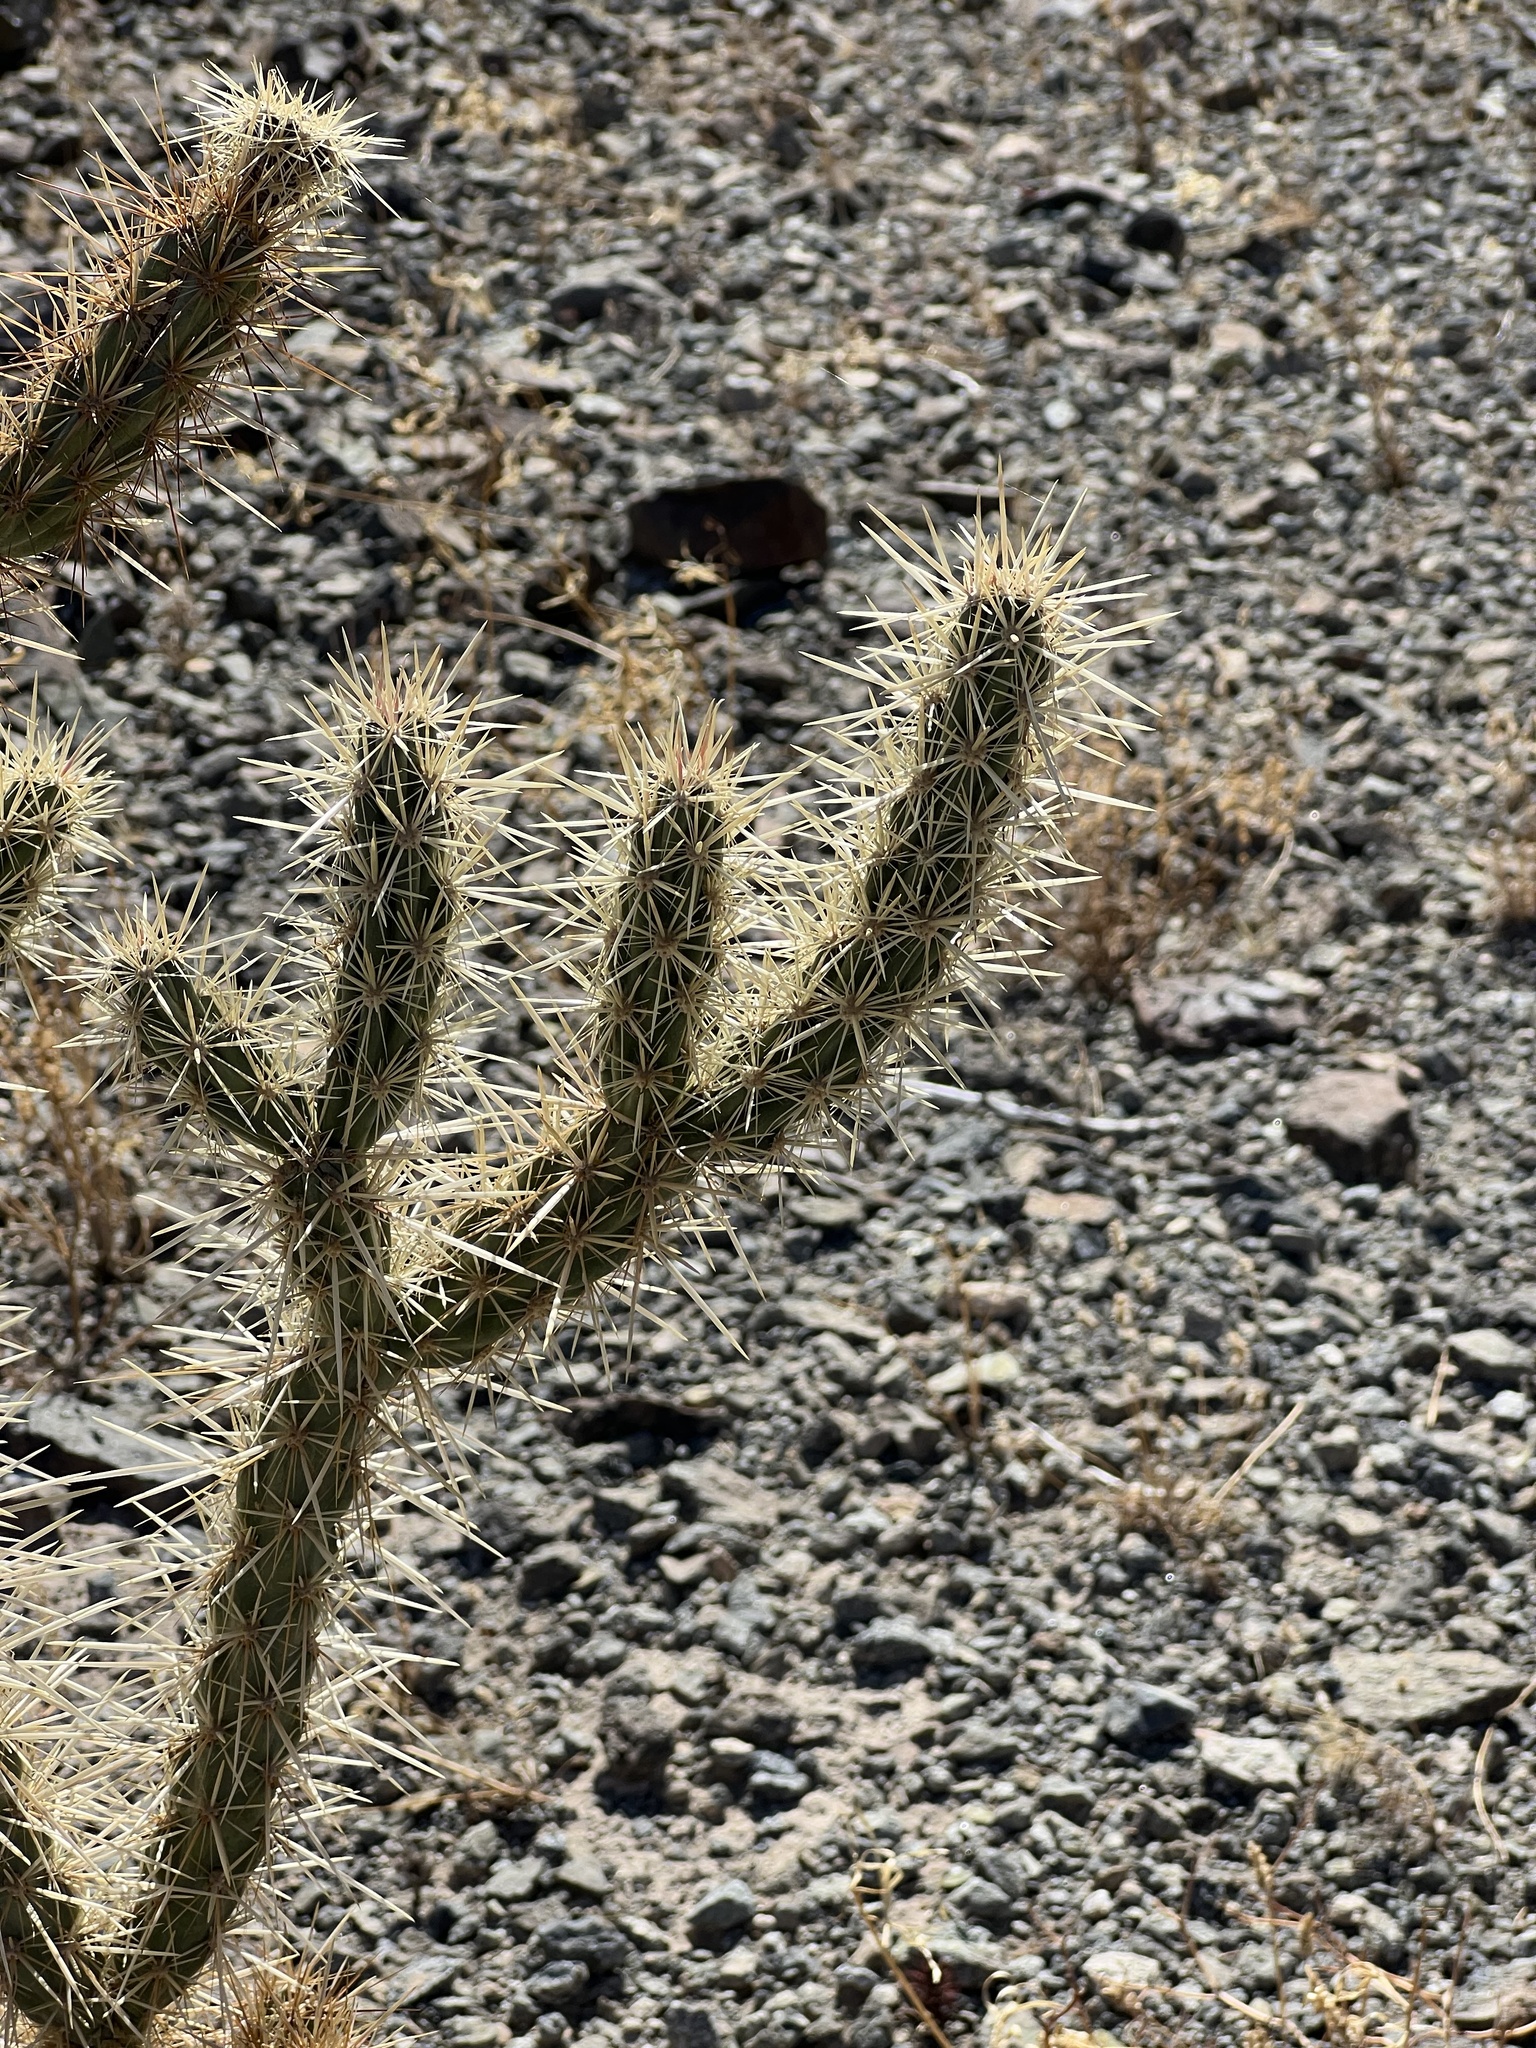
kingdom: Plantae
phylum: Tracheophyta
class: Magnoliopsida
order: Caryophyllales
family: Cactaceae
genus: Cylindropuntia
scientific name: Cylindropuntia acanthocarpa
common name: Buckhorn cholla
